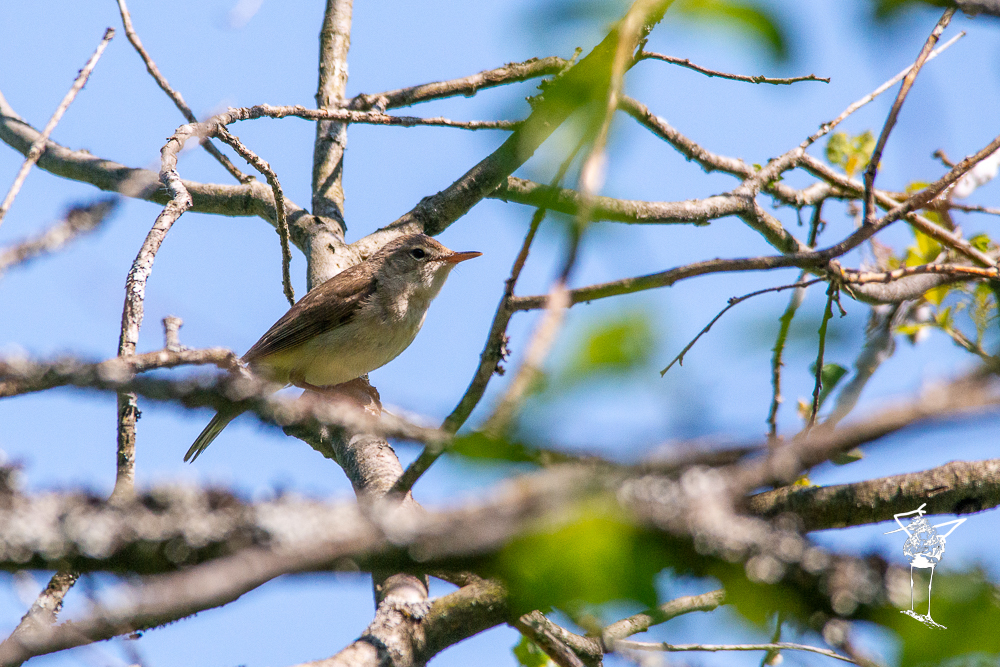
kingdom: Animalia
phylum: Chordata
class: Aves
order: Passeriformes
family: Phylloscopidae
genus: Phylloscopus
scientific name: Phylloscopus trochilus
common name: Willow warbler
